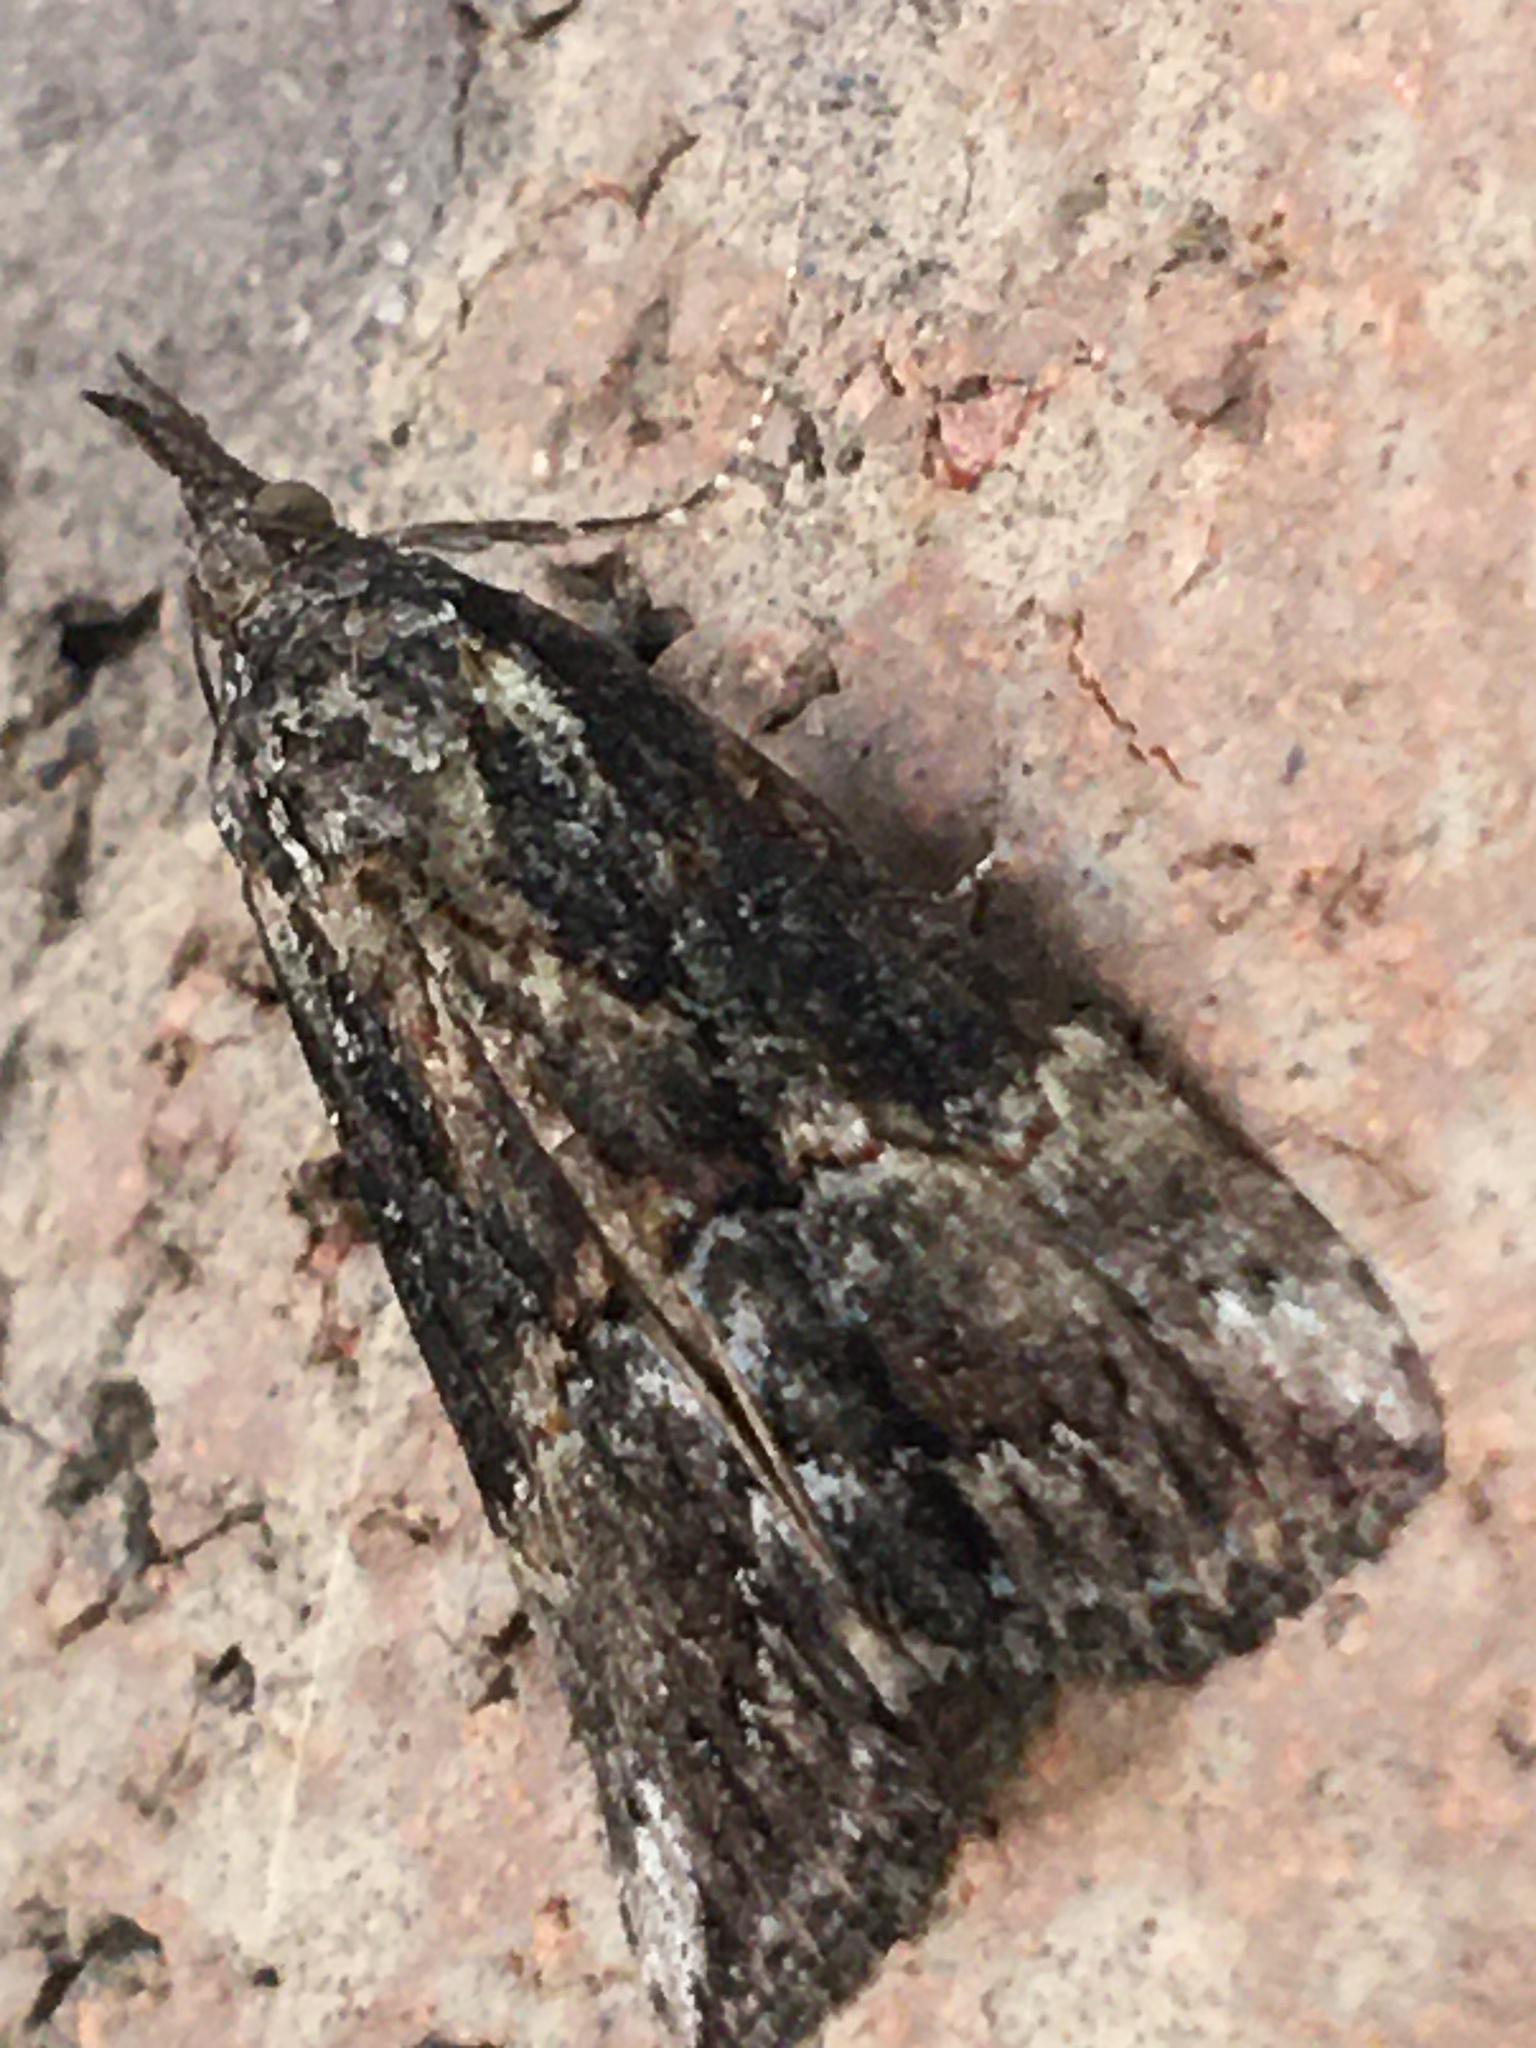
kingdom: Animalia
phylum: Arthropoda
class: Insecta
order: Lepidoptera
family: Erebidae
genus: Hypena
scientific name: Hypena scabra
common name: Green cloverworm
